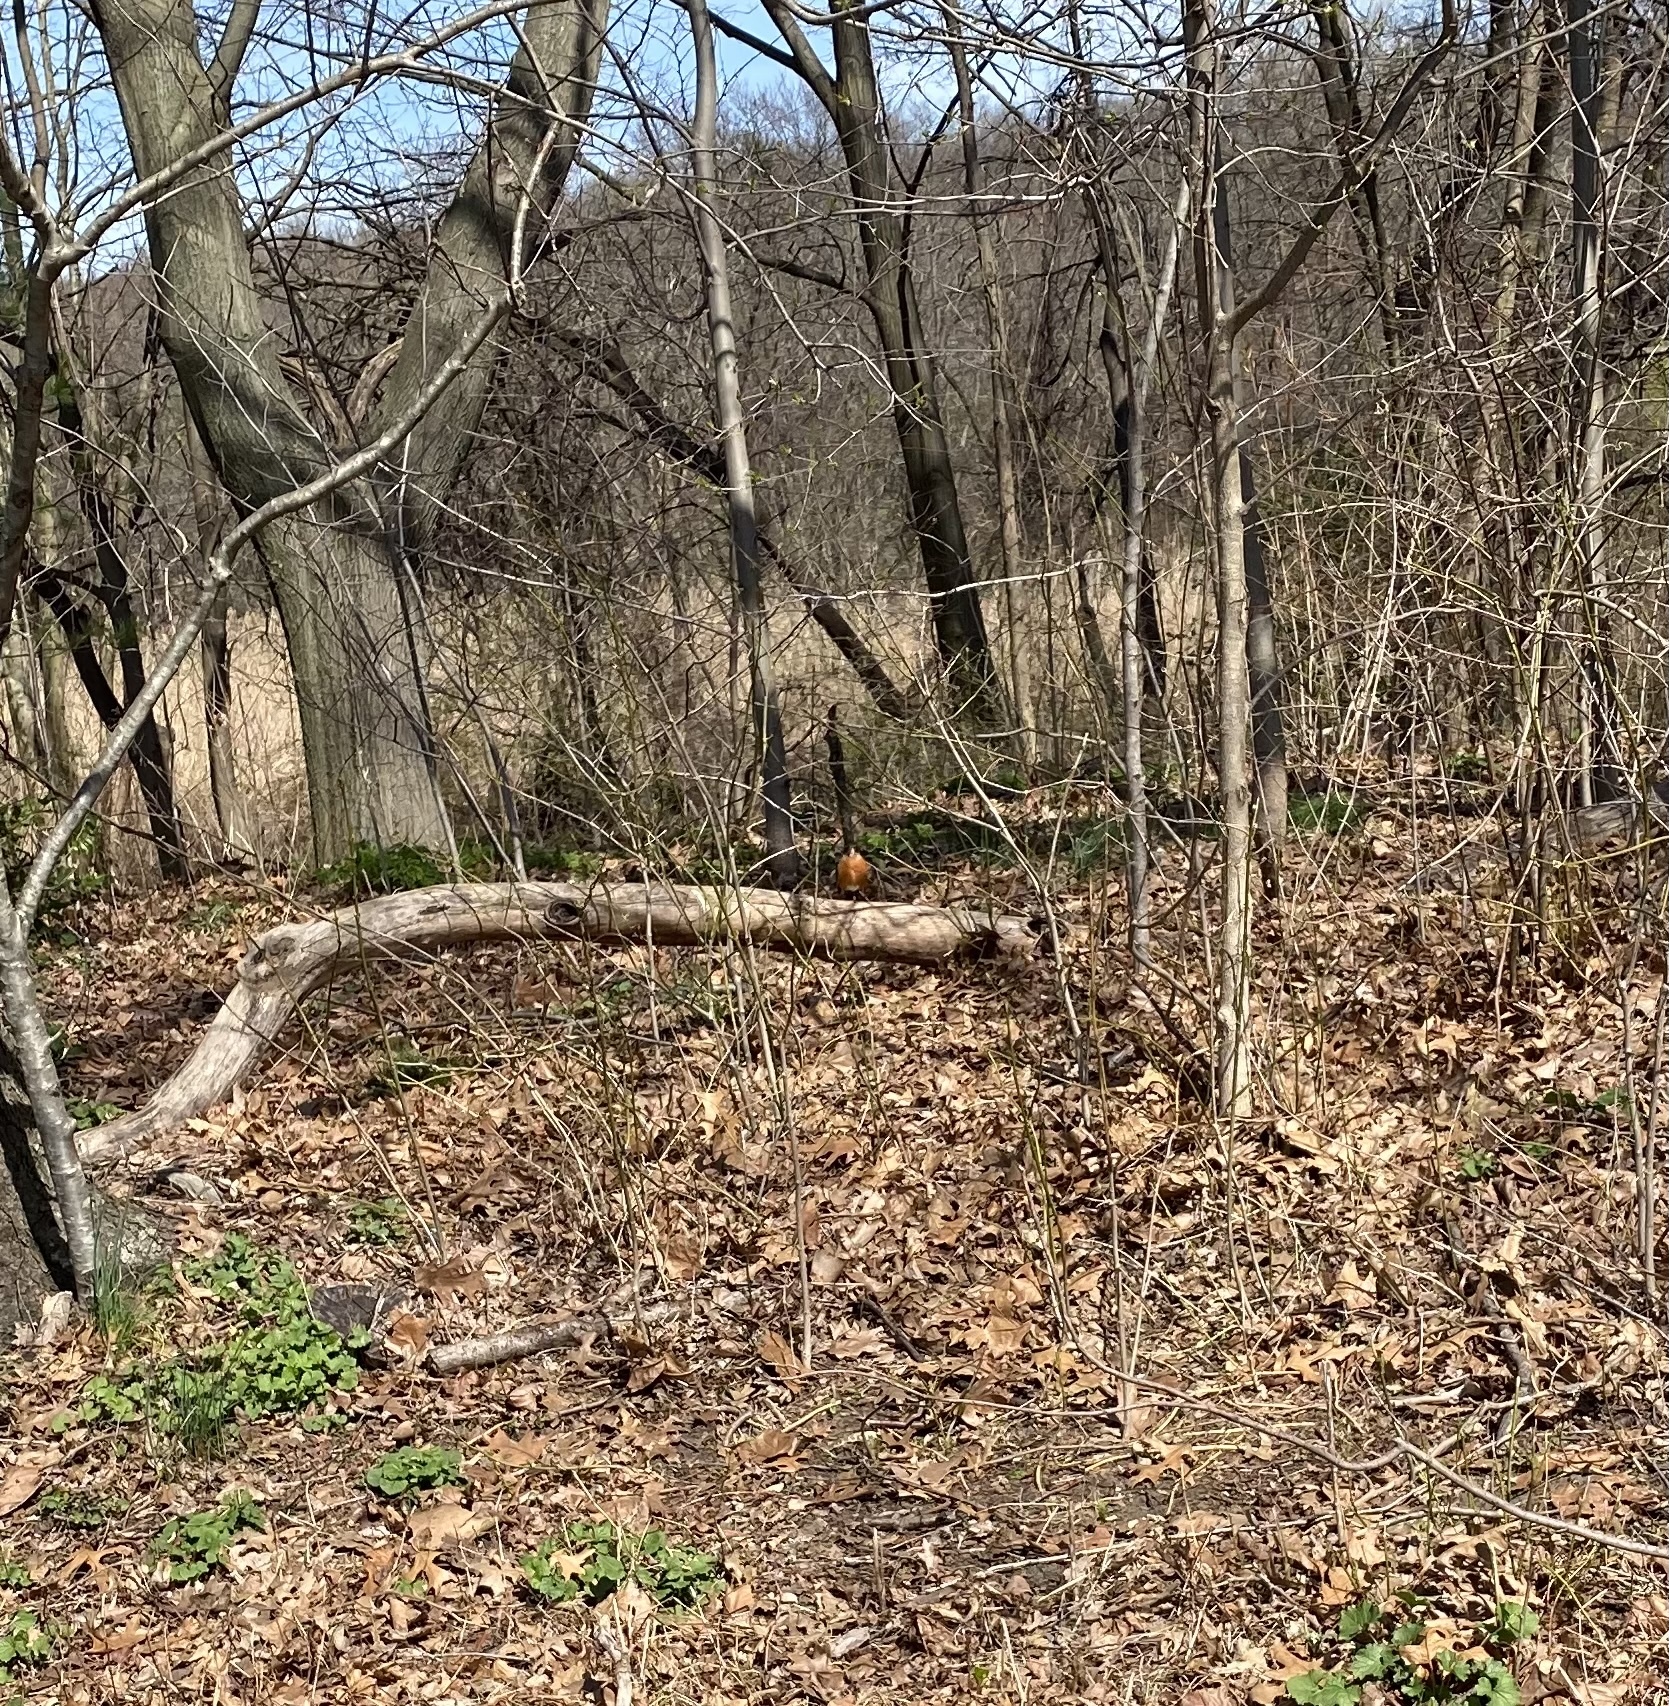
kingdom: Animalia
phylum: Chordata
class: Aves
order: Passeriformes
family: Turdidae
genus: Turdus
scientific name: Turdus migratorius
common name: American robin
